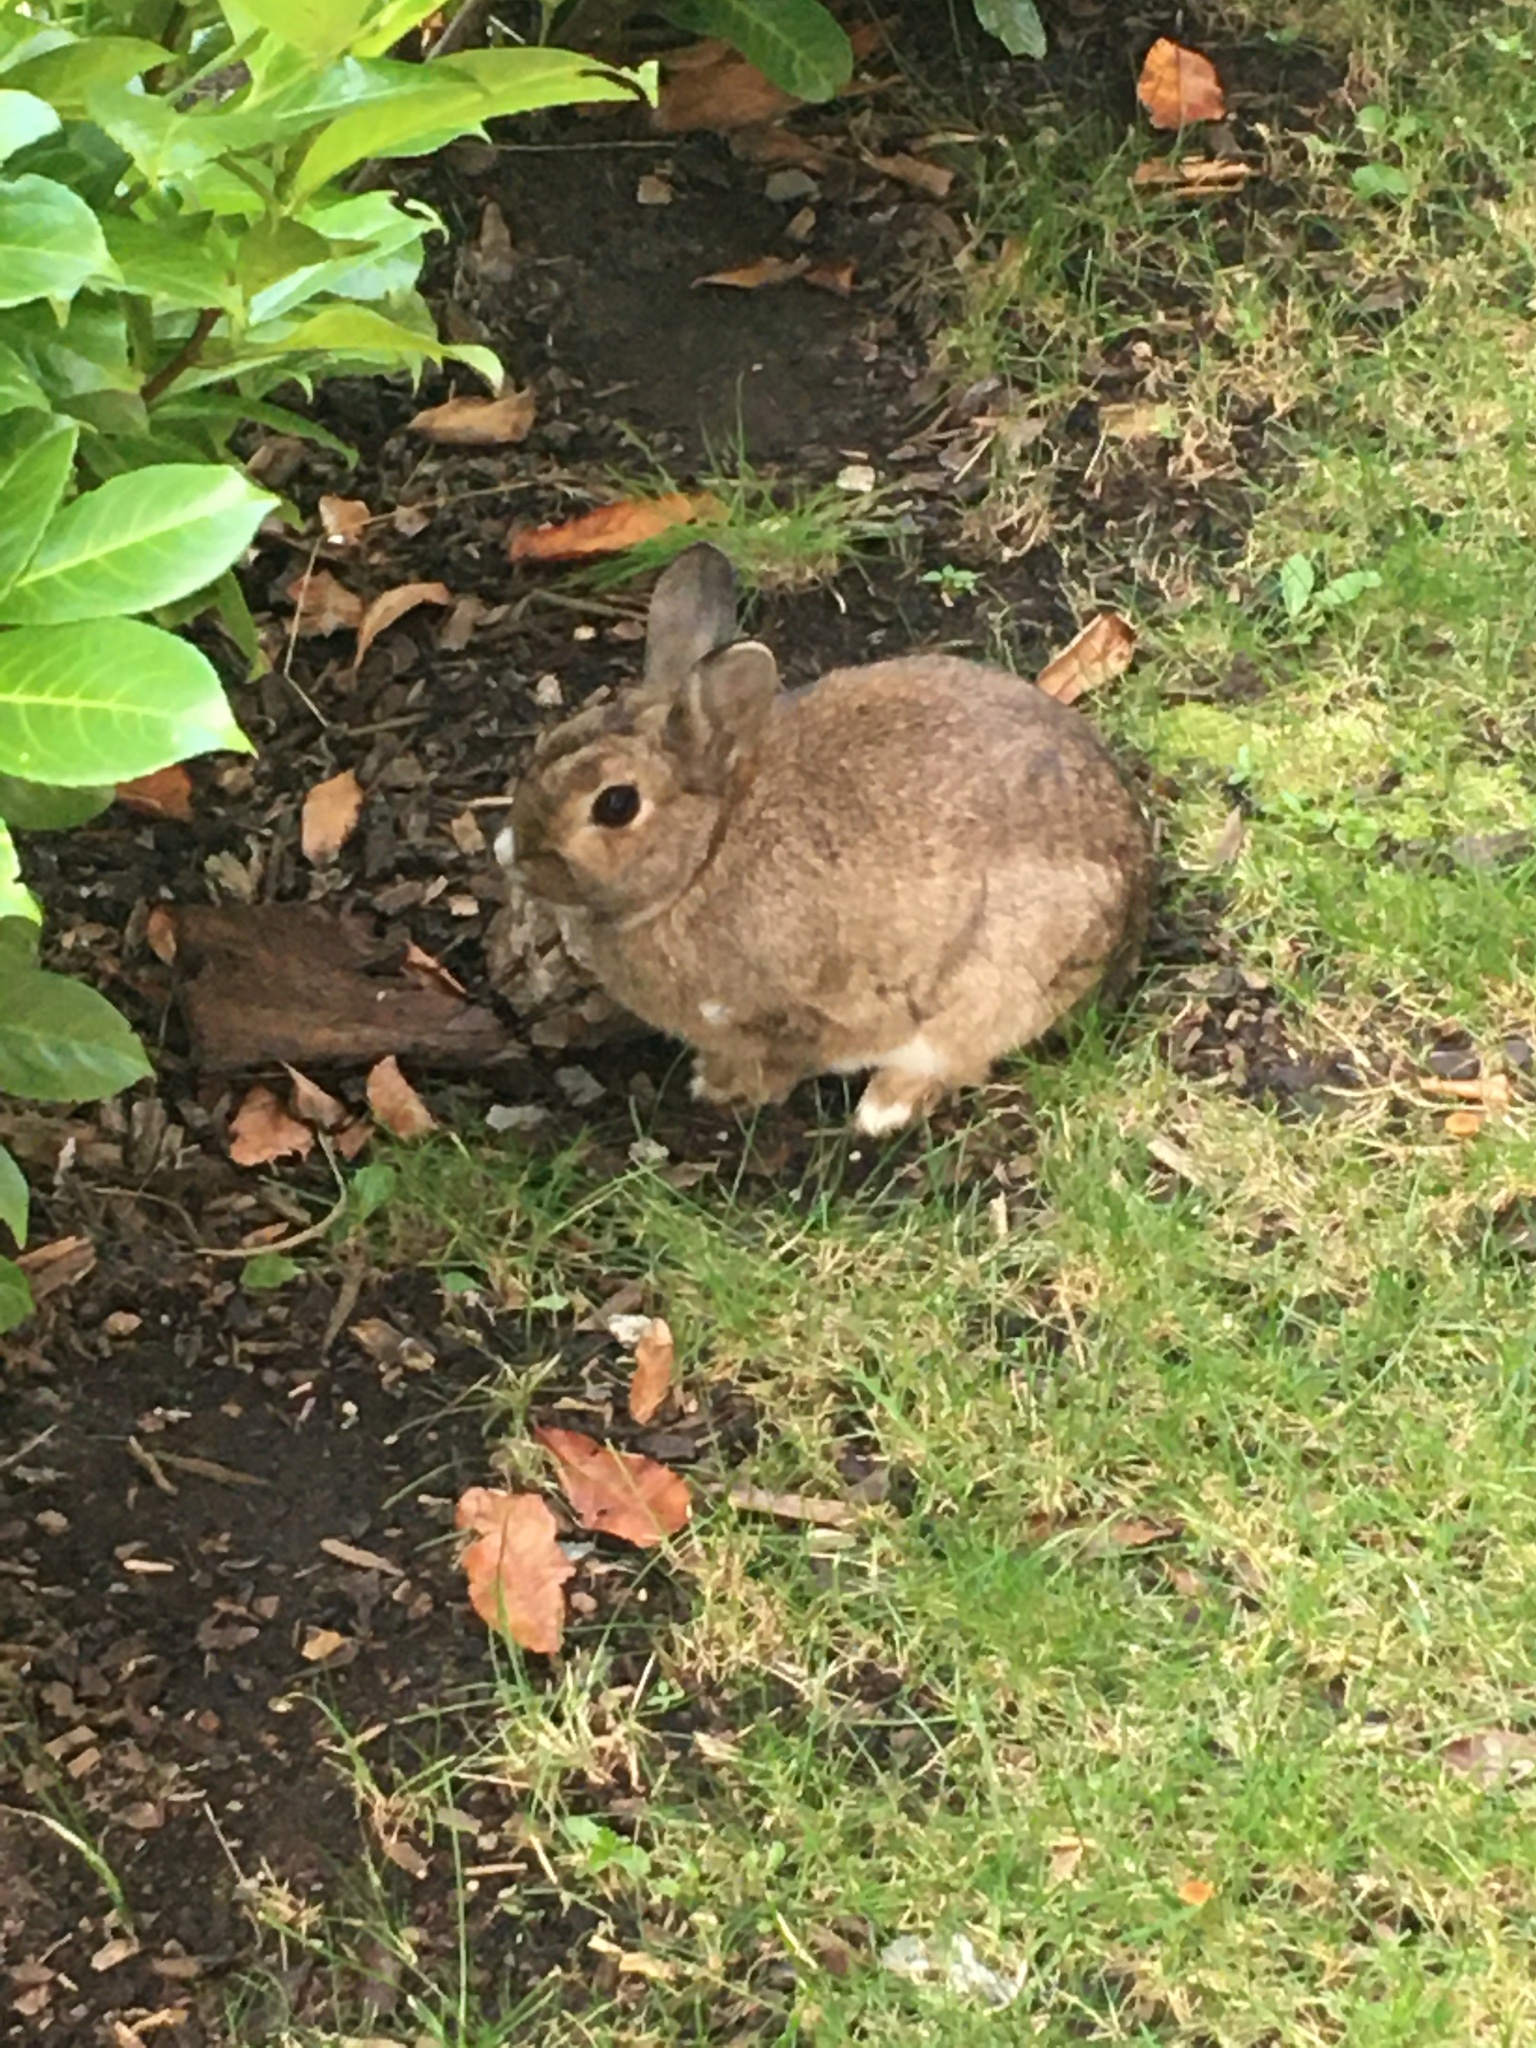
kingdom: Animalia
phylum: Chordata
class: Mammalia
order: Lagomorpha
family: Leporidae
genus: Oryctolagus
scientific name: Oryctolagus cuniculus
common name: European rabbit
